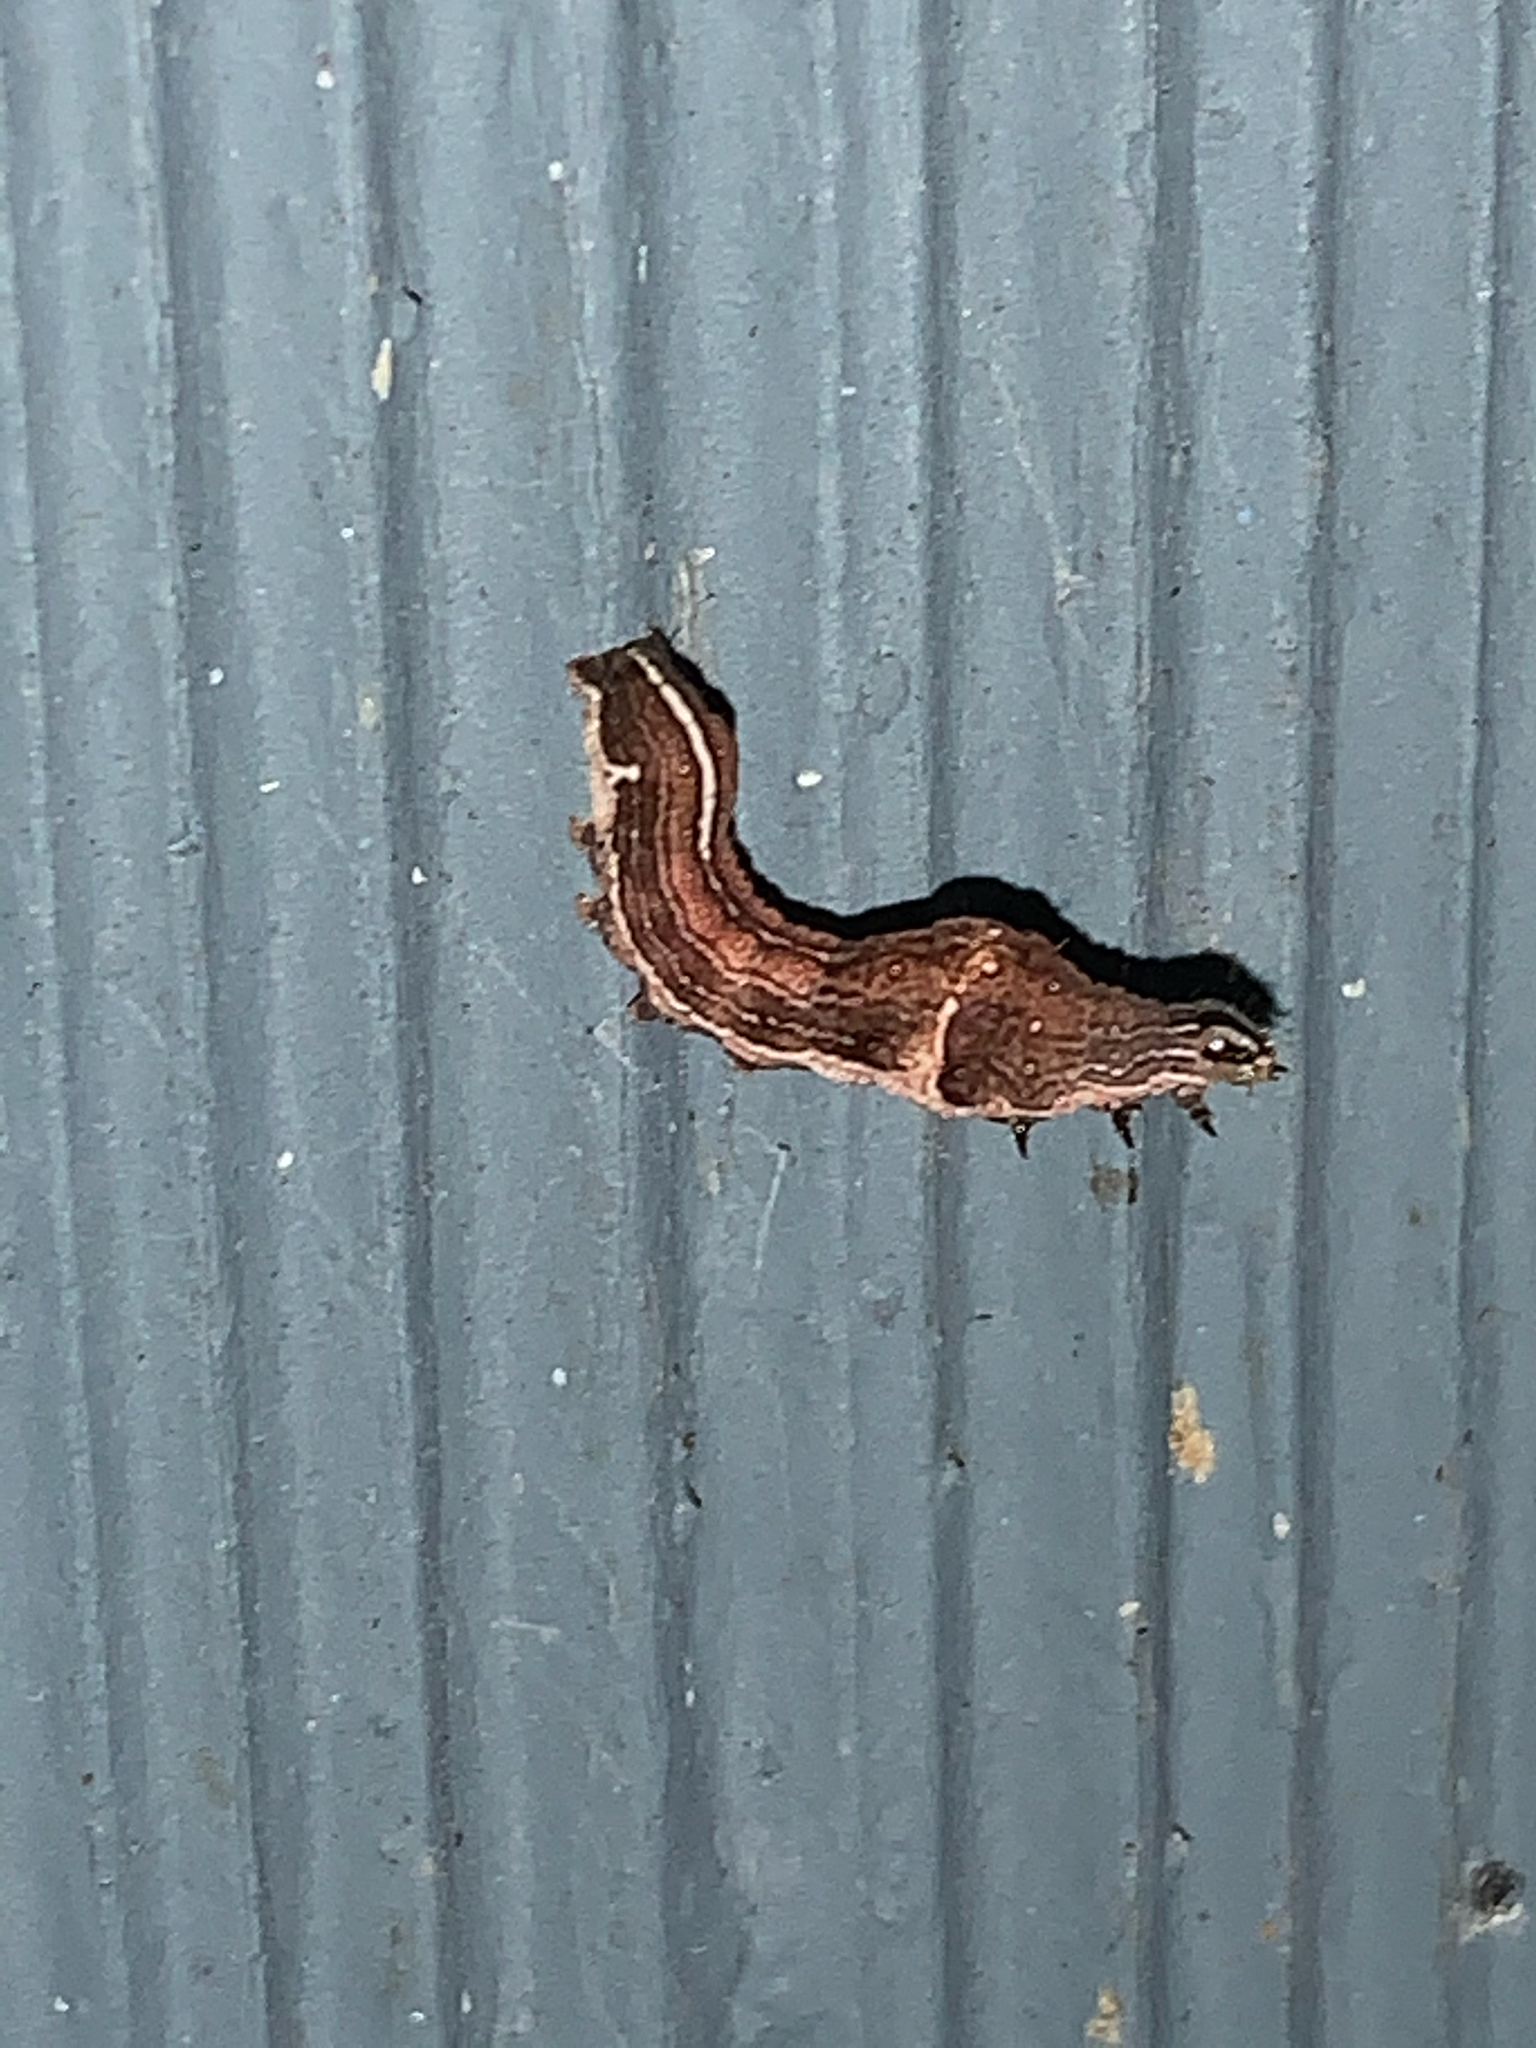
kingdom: Animalia
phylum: Arthropoda
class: Insecta
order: Lepidoptera
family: Noctuidae
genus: Galgula
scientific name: Galgula partita
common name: Wedgeling
